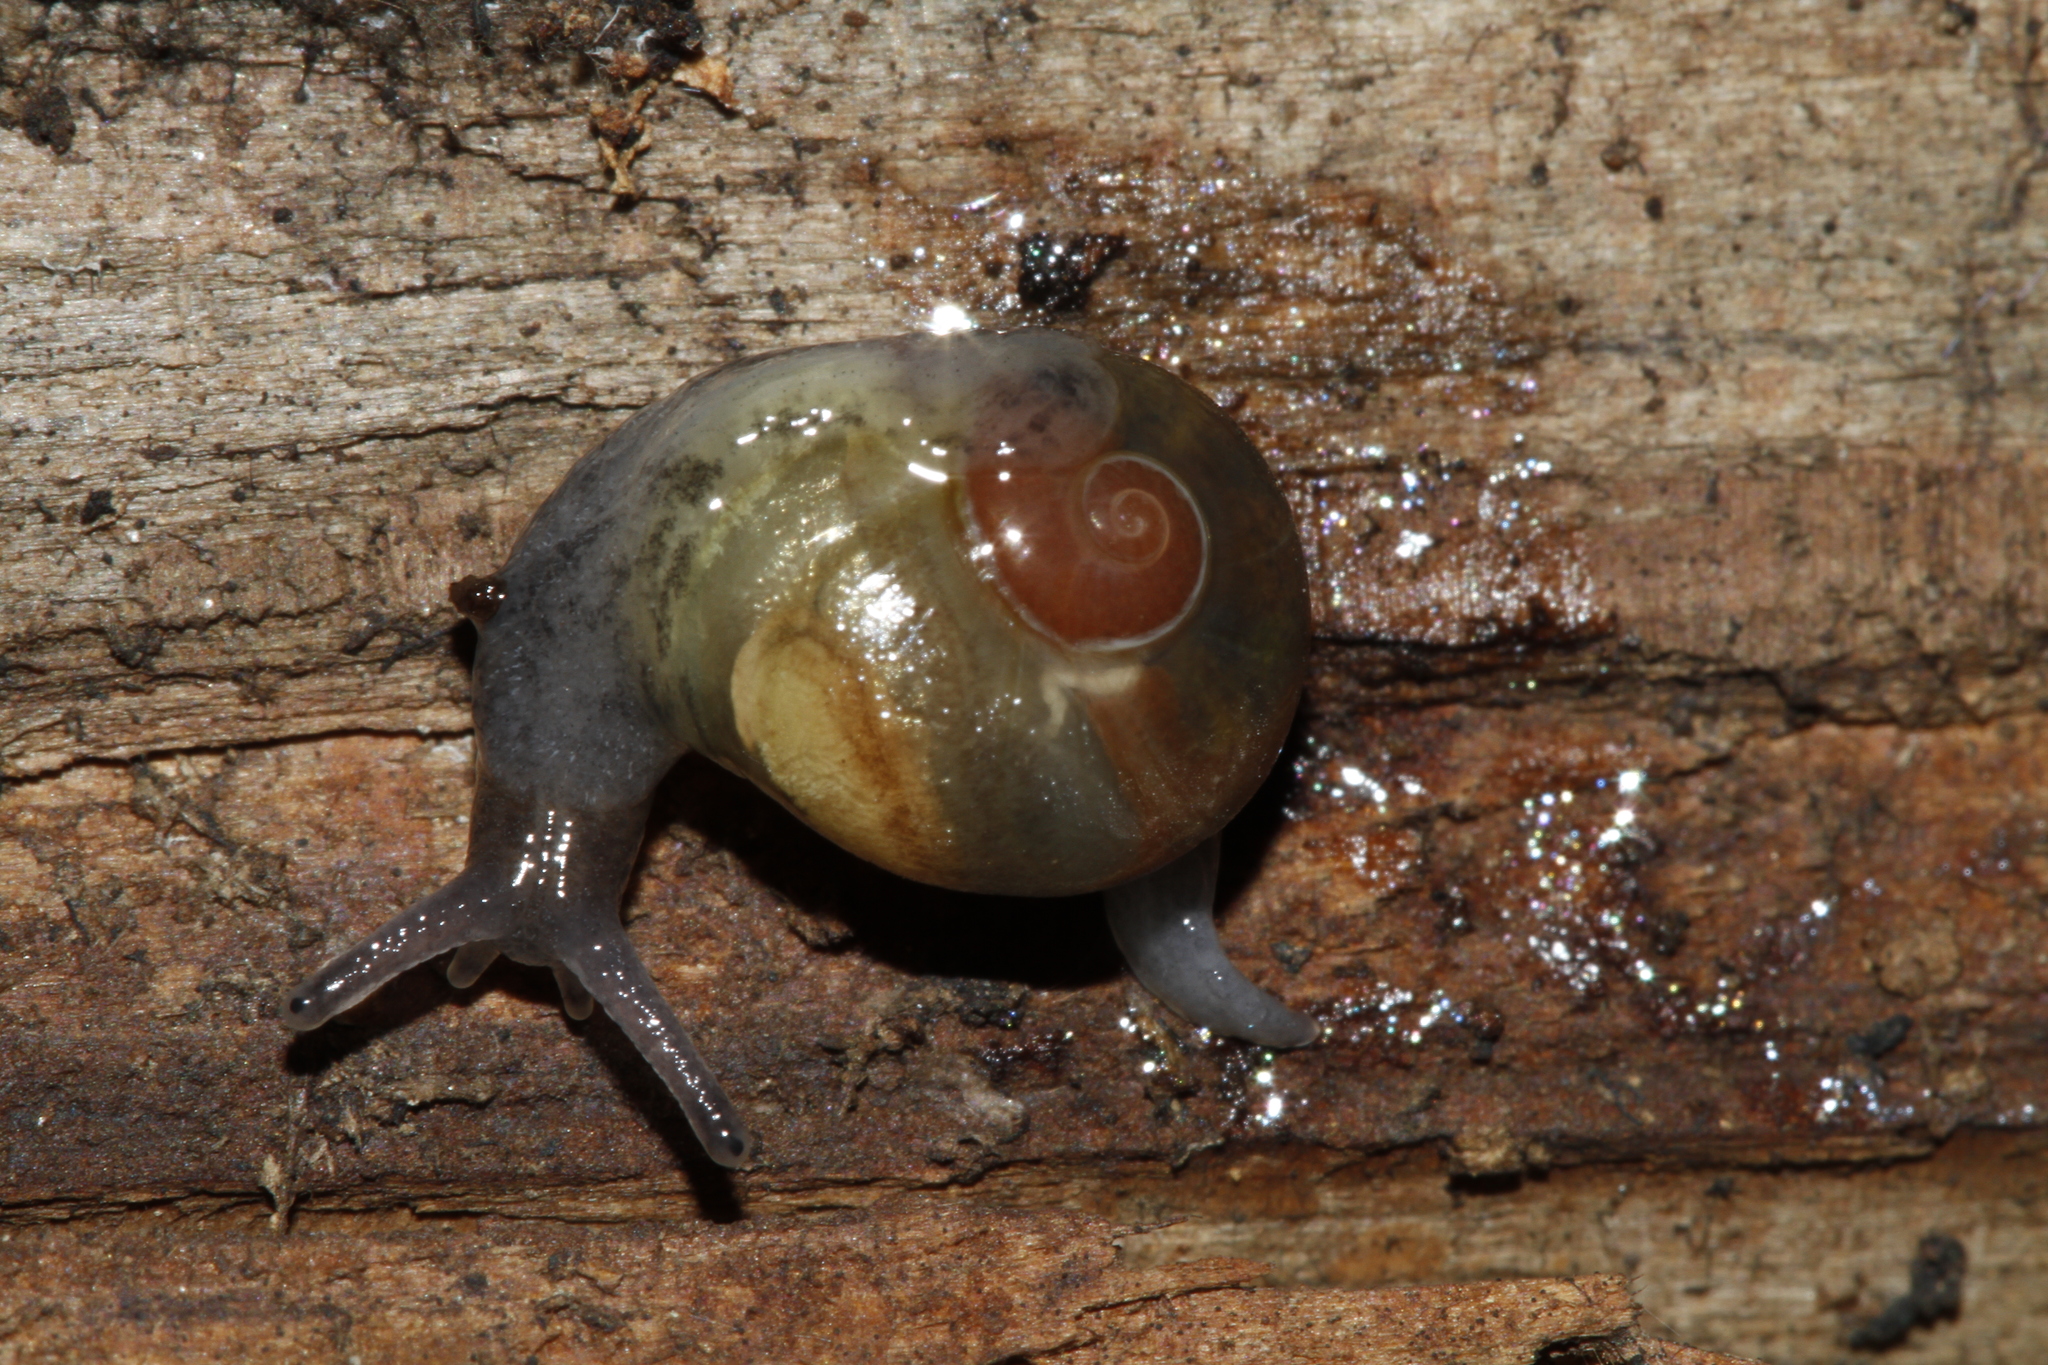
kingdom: Animalia
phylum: Mollusca
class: Gastropoda
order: Stylommatophora
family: Vitrinidae
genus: Phenacolimax
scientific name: Phenacolimax major
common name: Greater pellucid glass snail
